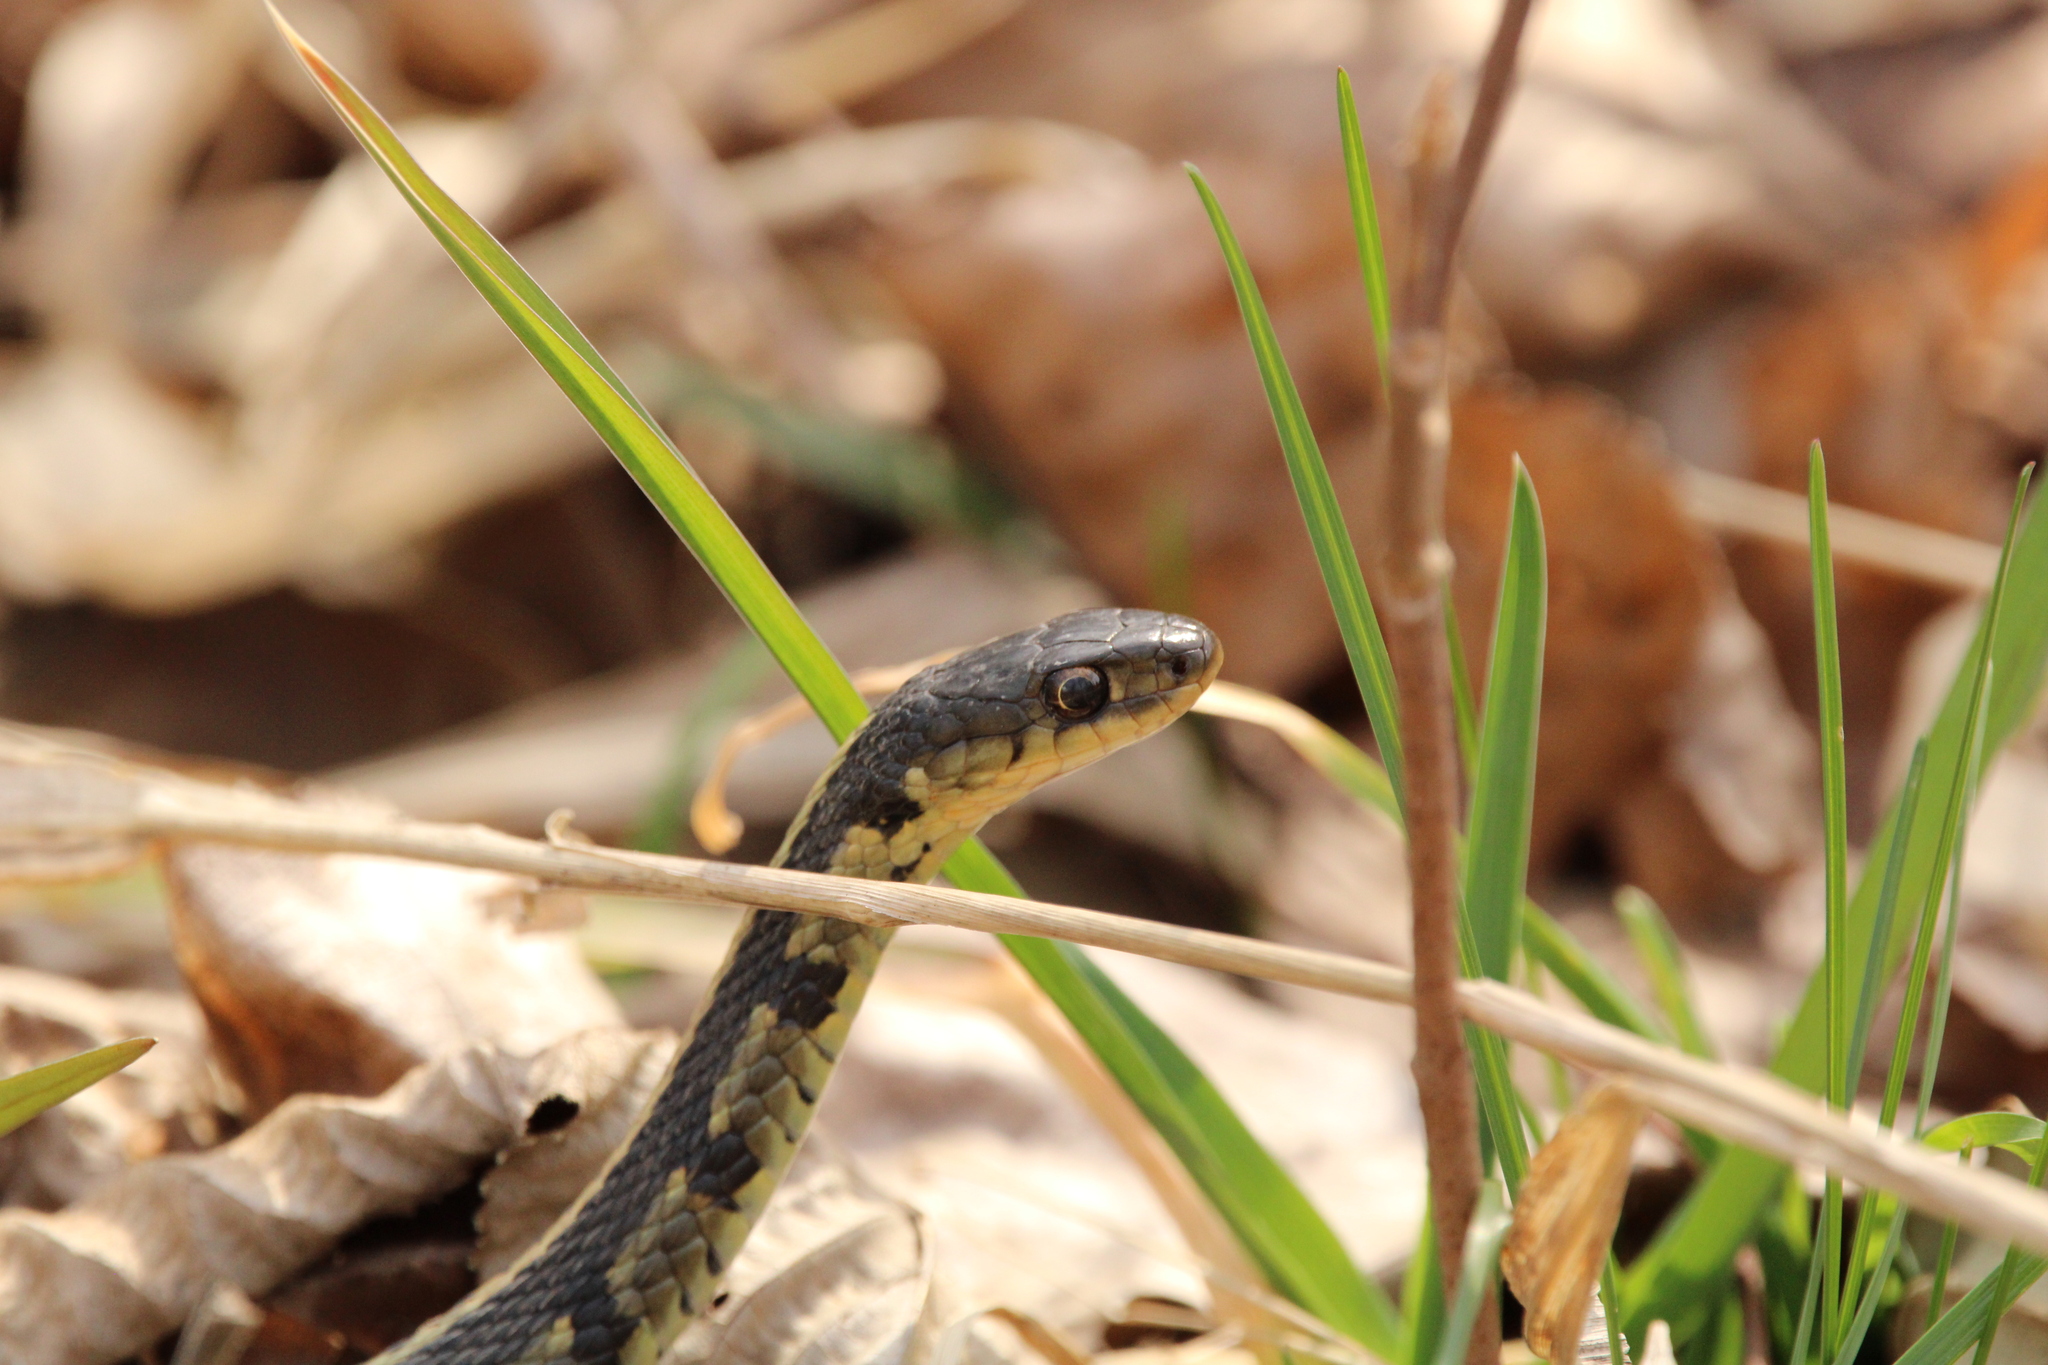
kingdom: Animalia
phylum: Chordata
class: Squamata
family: Colubridae
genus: Thamnophis
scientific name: Thamnophis sirtalis
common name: Common garter snake
